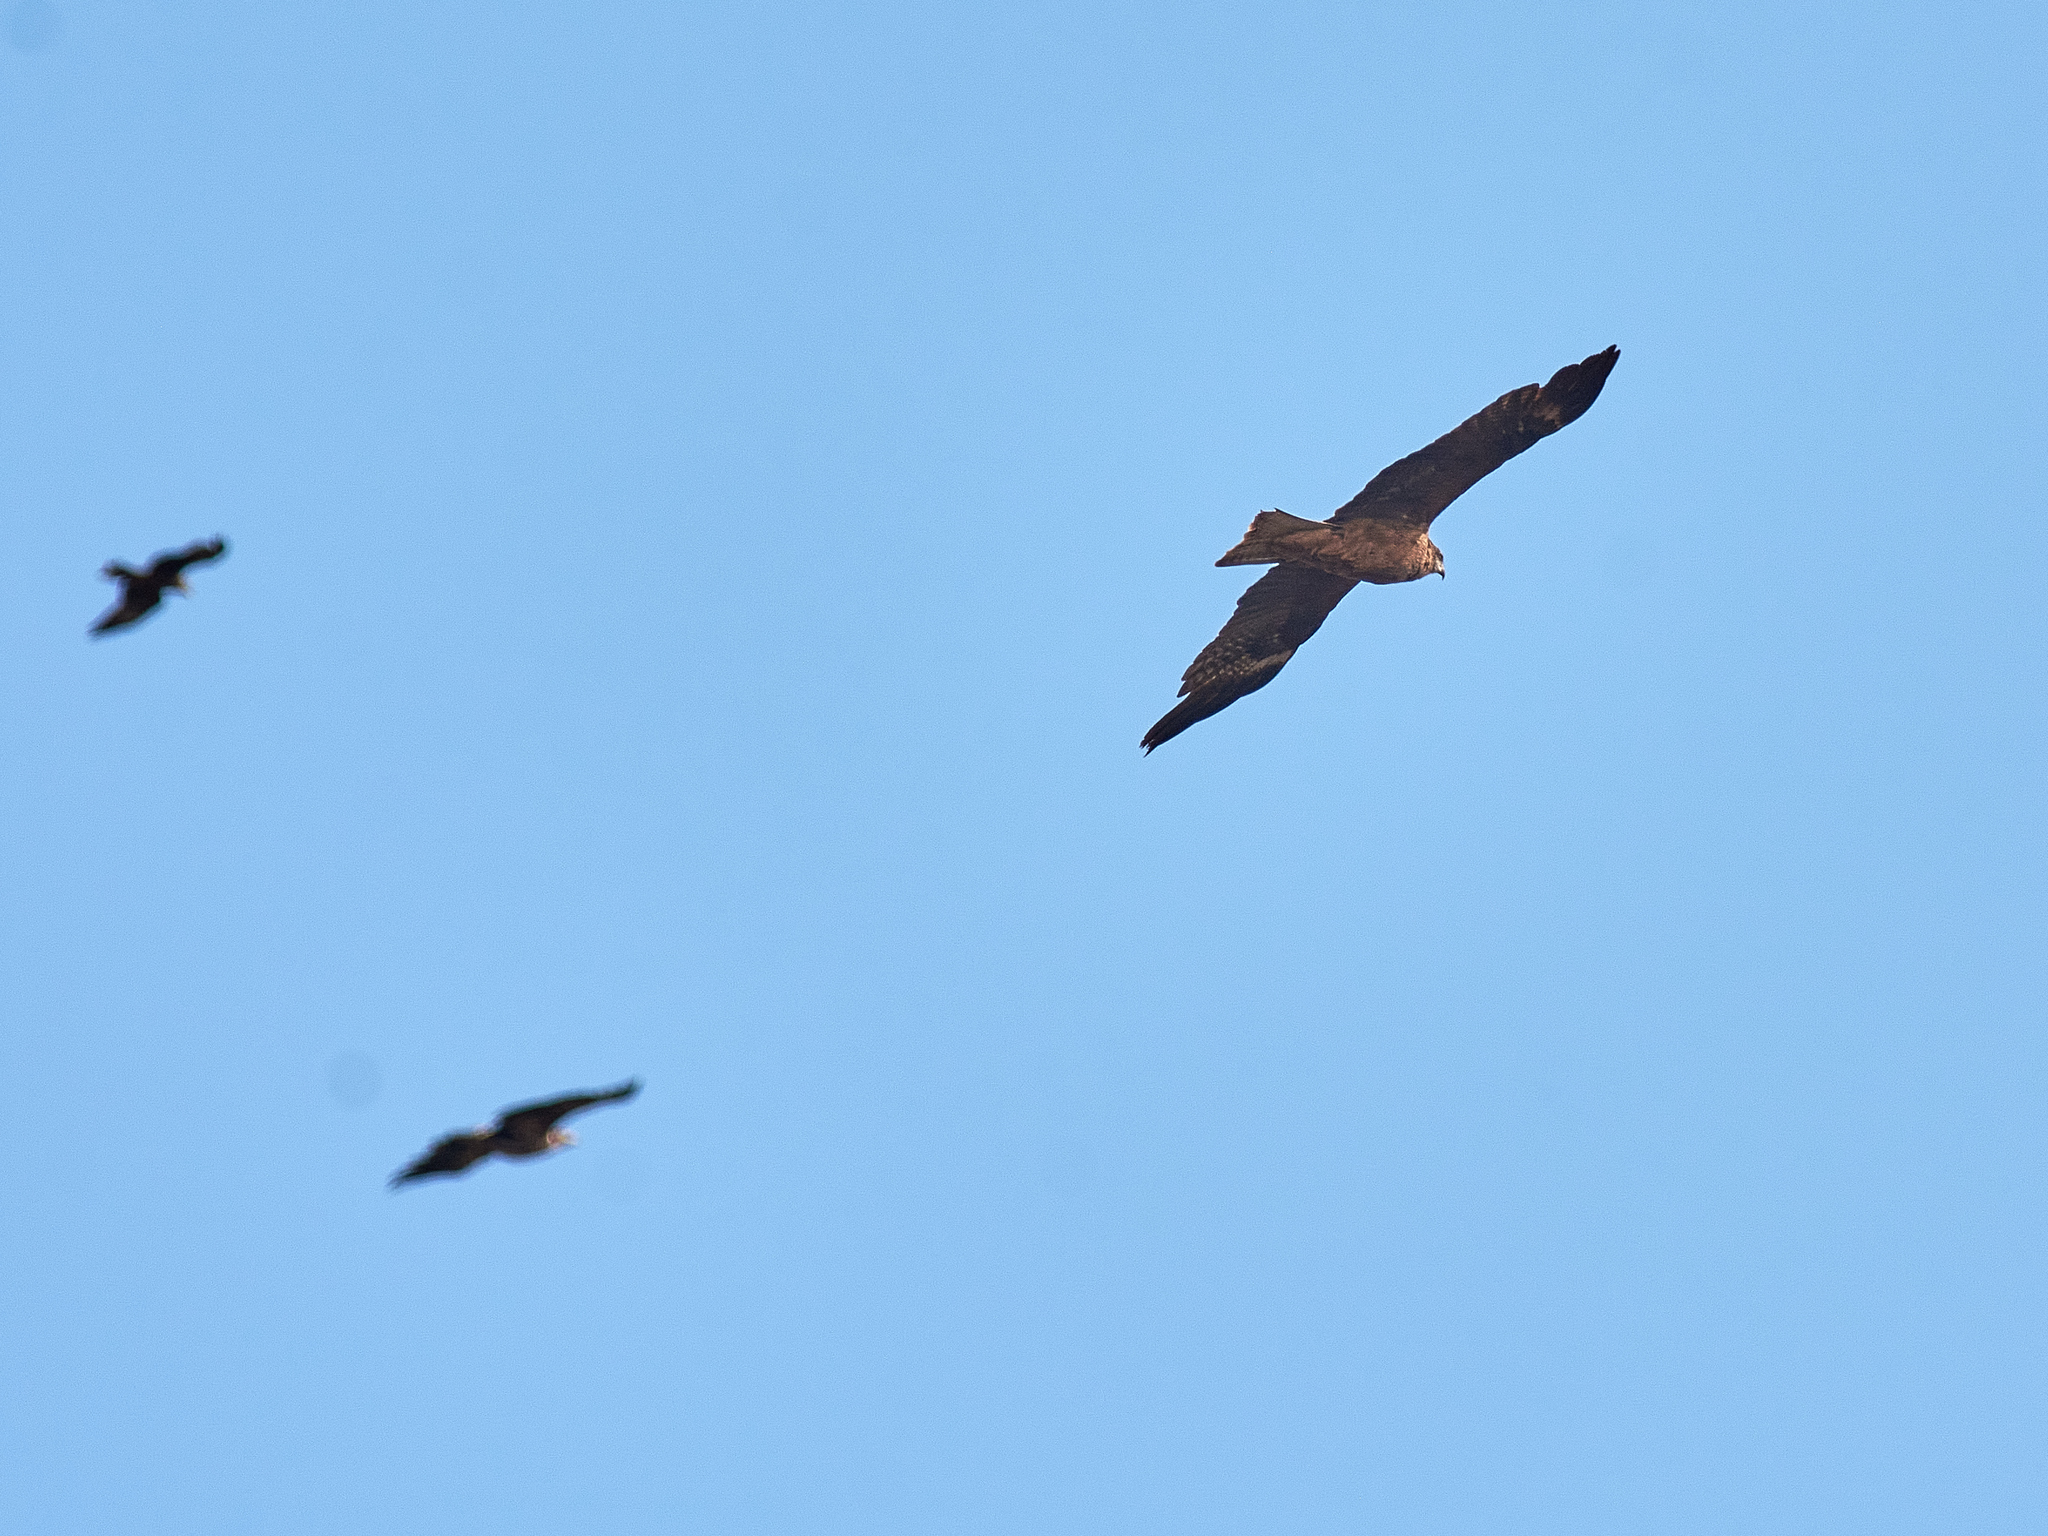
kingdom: Animalia
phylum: Chordata
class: Aves
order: Accipitriformes
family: Accipitridae
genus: Milvus
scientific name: Milvus migrans
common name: Black kite
